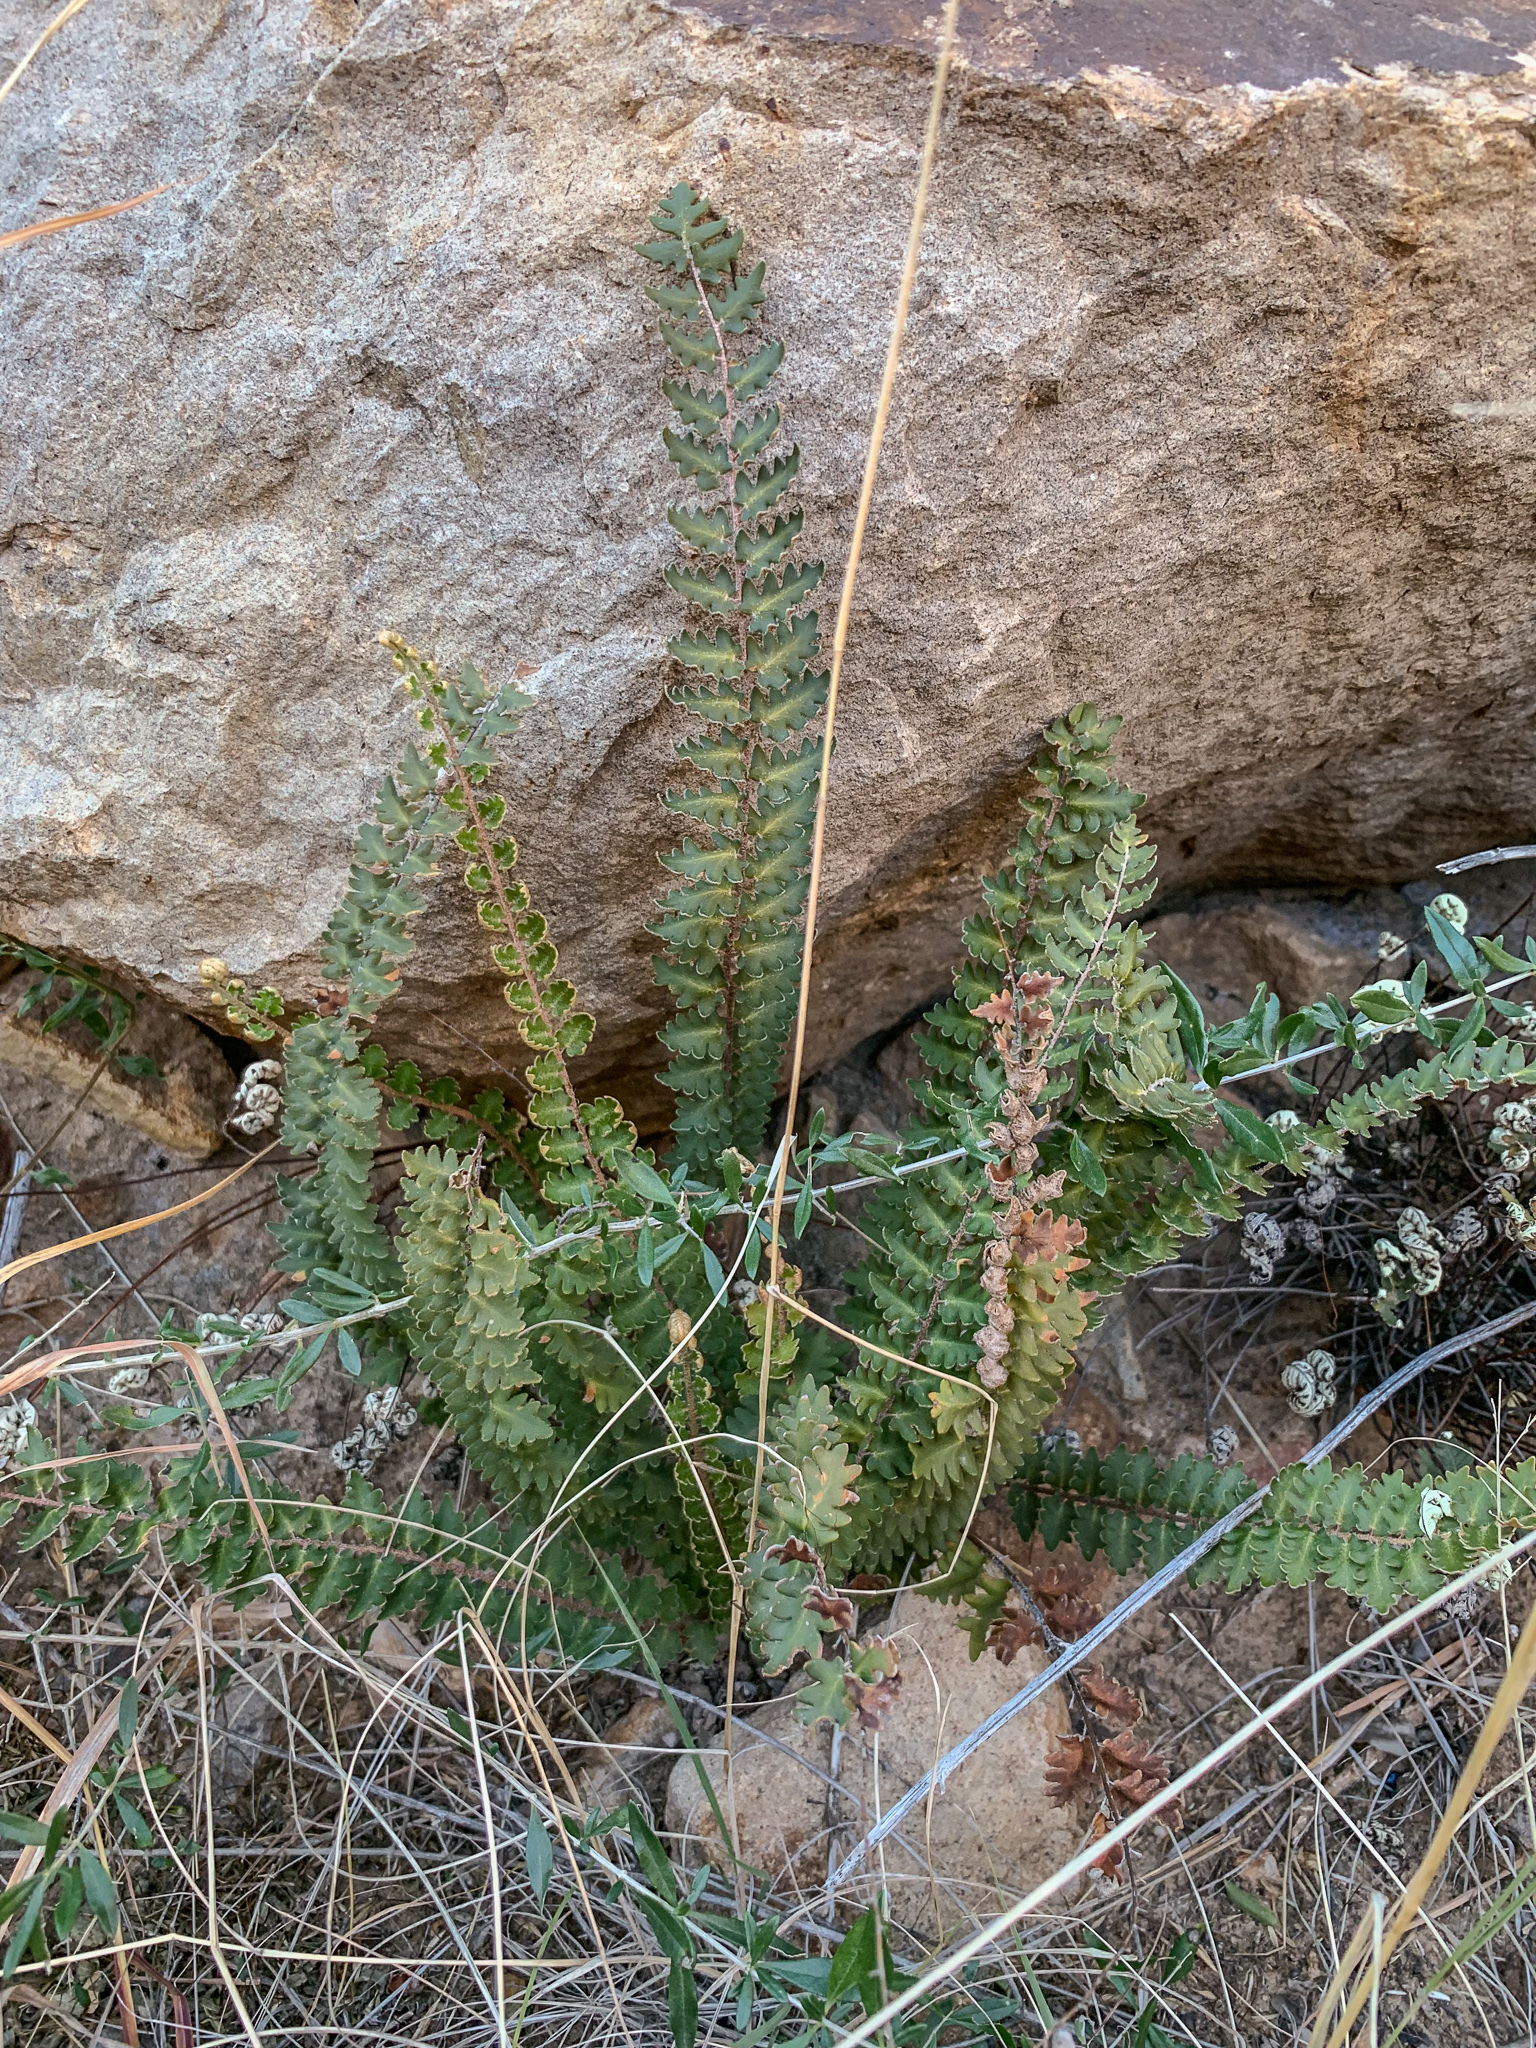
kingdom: Plantae
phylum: Tracheophyta
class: Polypodiopsida
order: Polypodiales
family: Pteridaceae
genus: Astrolepis
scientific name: Astrolepis sinuata
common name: Wavy scaly cloakfern
